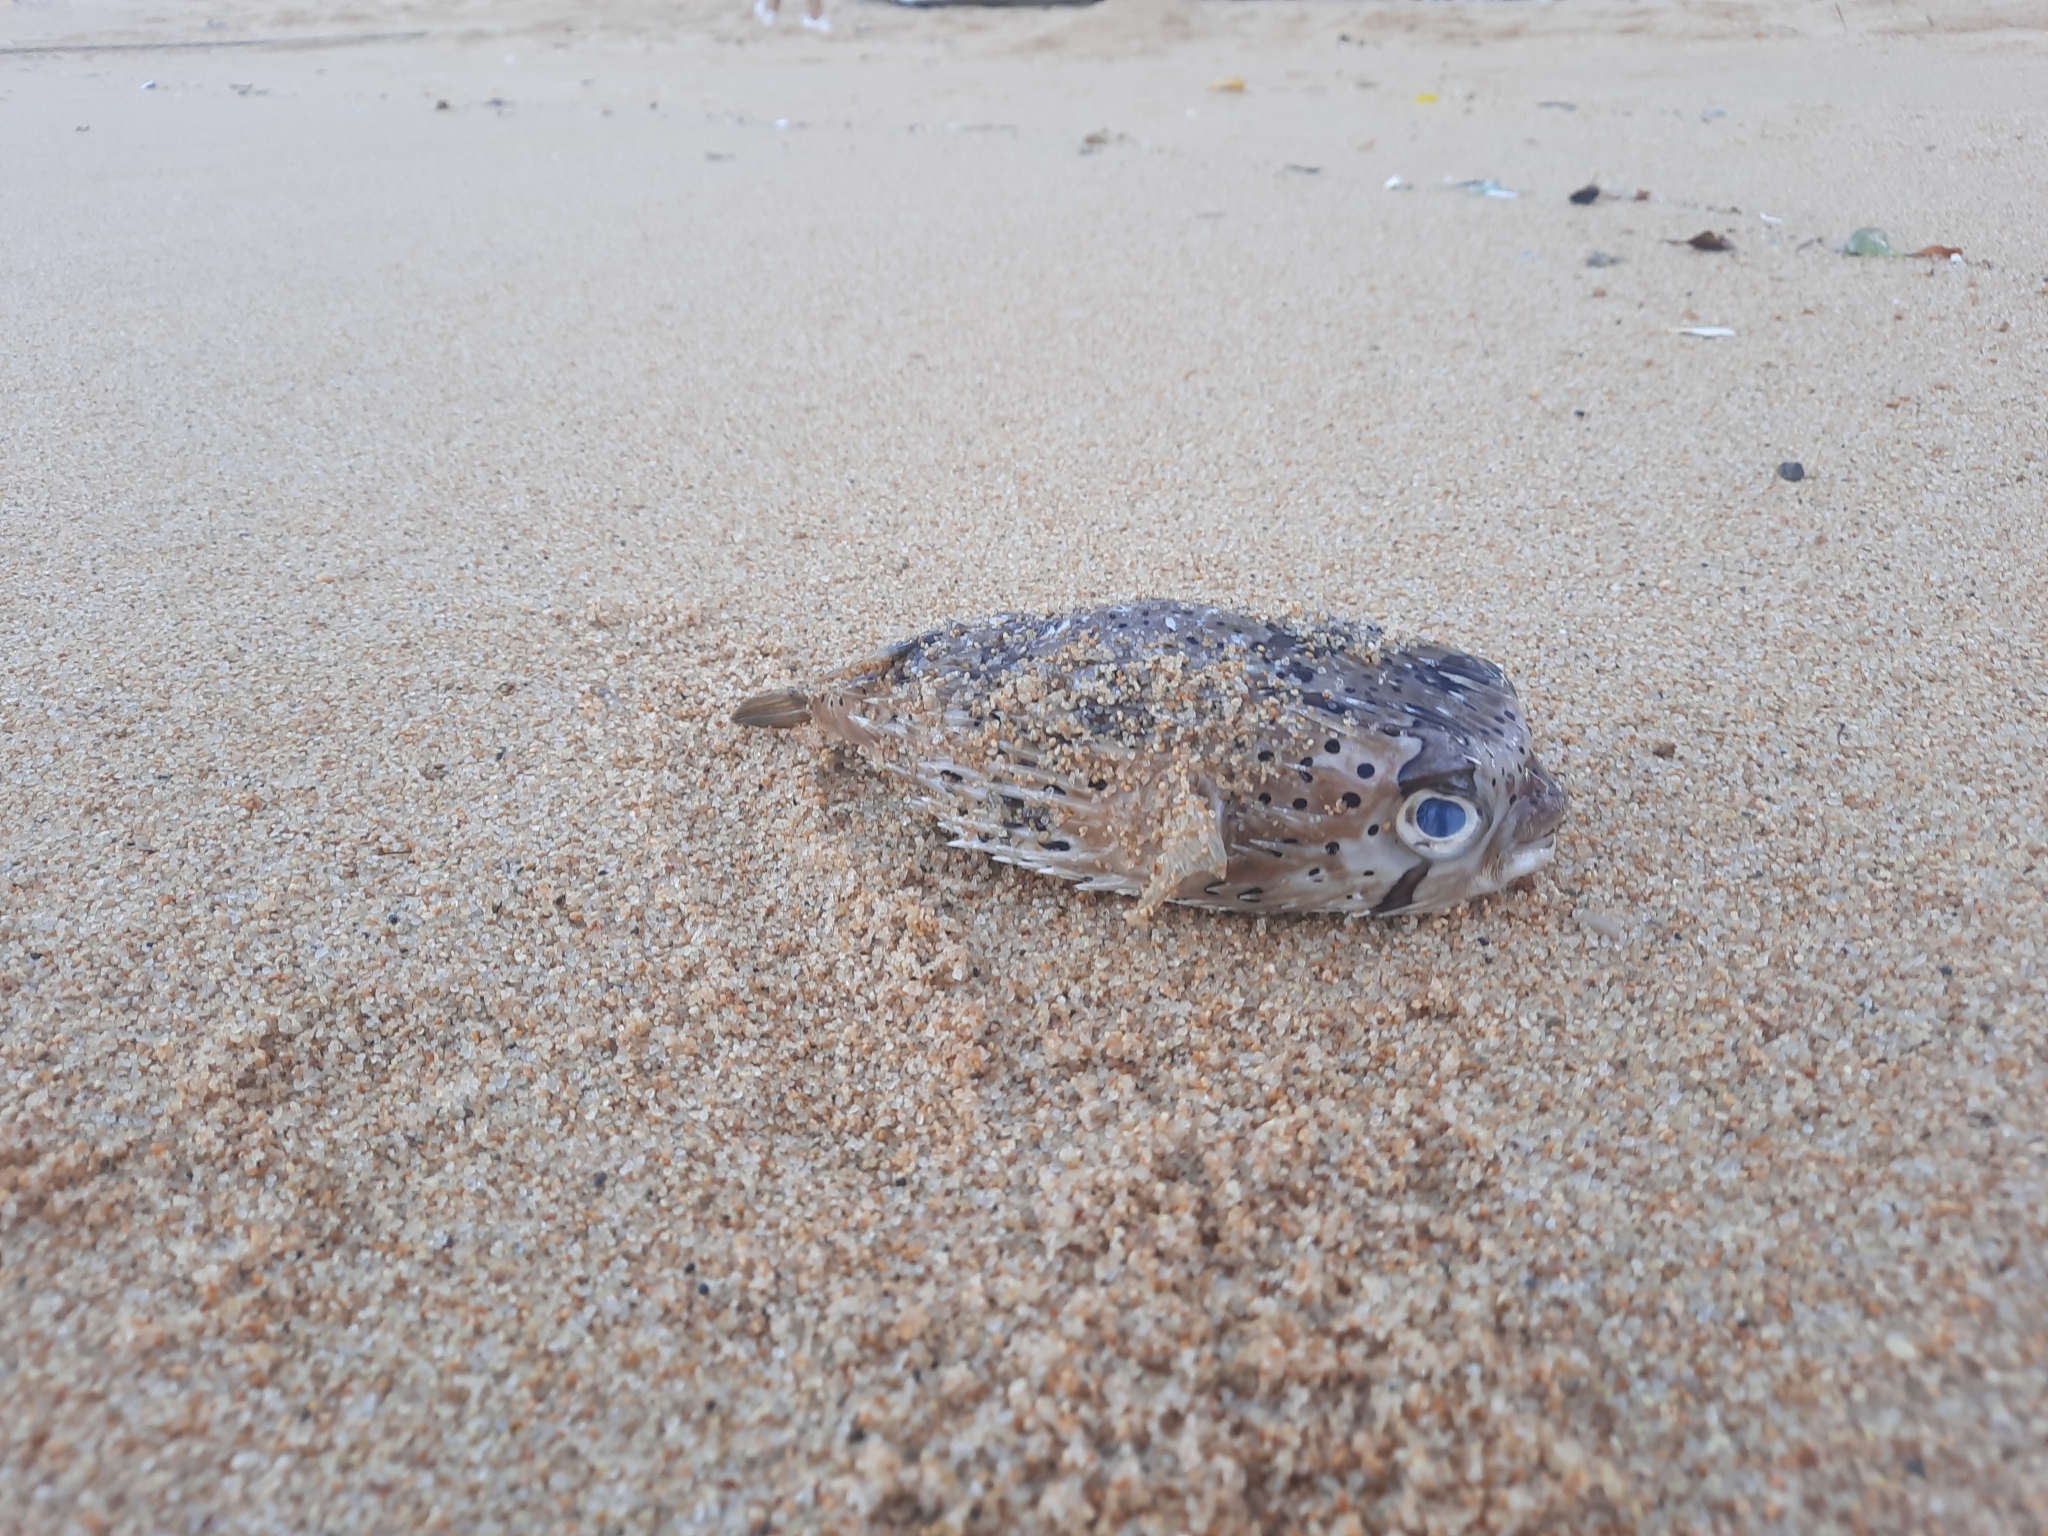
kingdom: Animalia
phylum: Chordata
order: Tetraodontiformes
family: Diodontidae
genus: Diodon
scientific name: Diodon holocanthus
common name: Balloonfish
